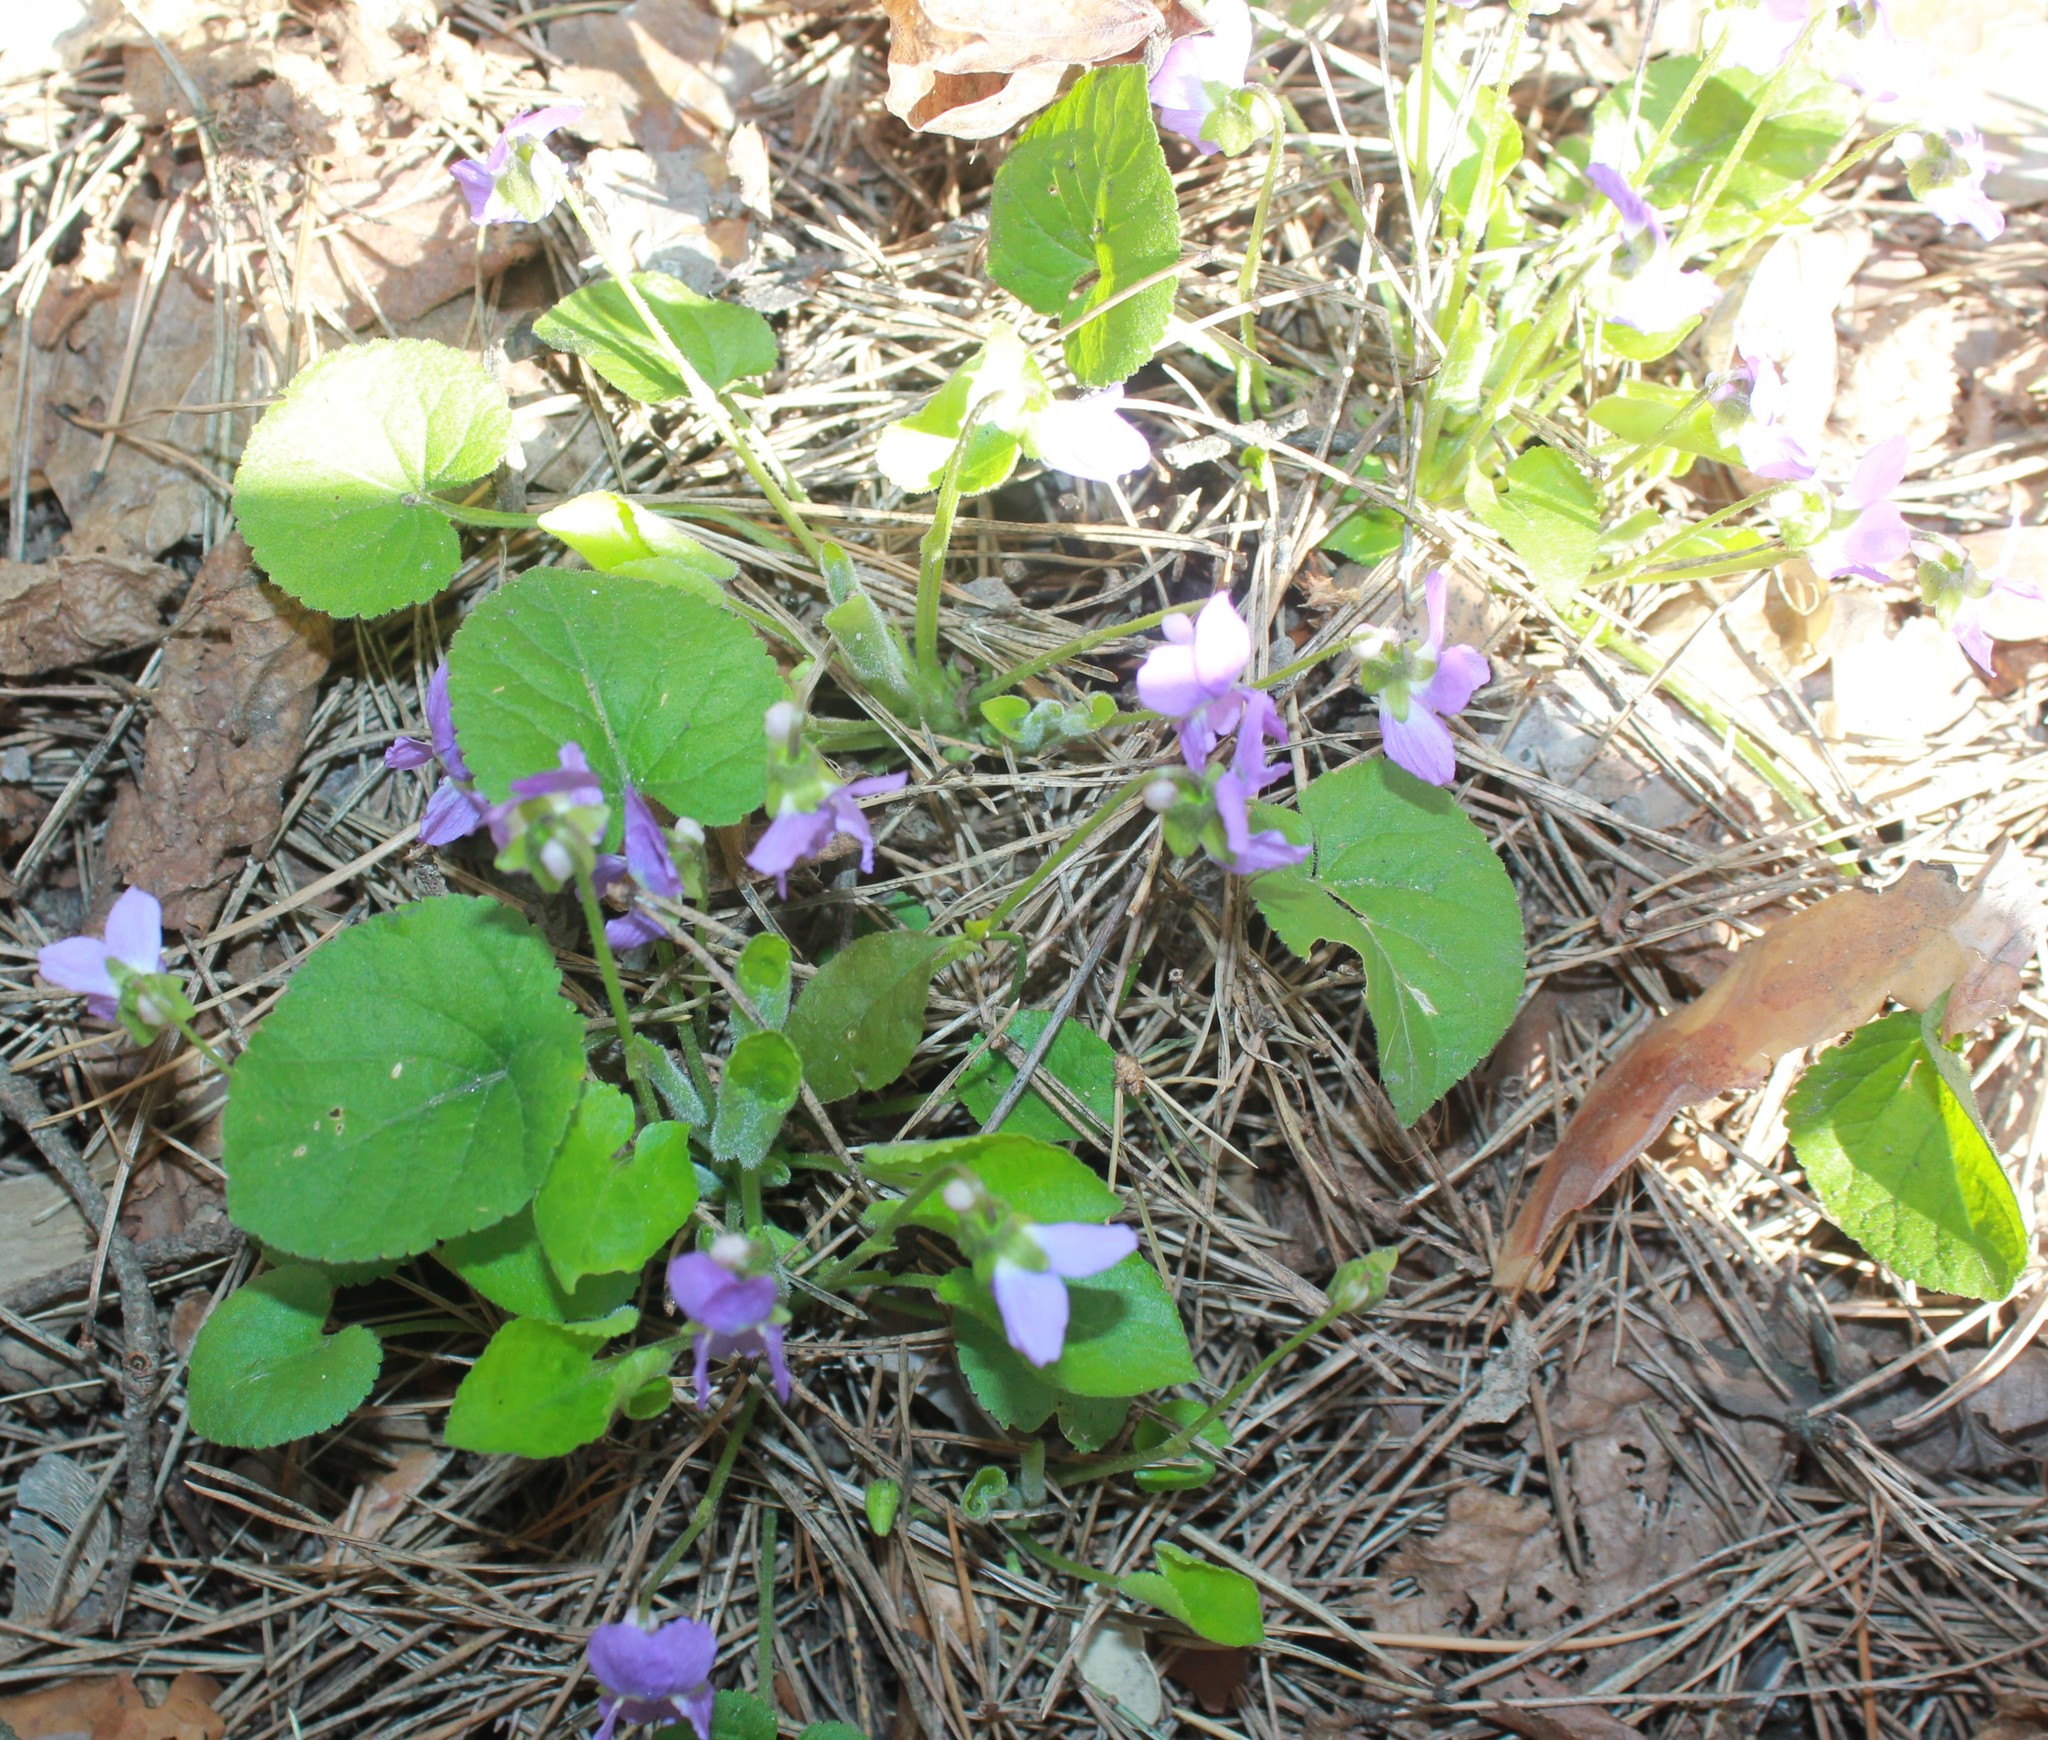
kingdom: Plantae
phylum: Tracheophyta
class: Magnoliopsida
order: Malpighiales
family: Violaceae
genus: Viola
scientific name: Viola collina
